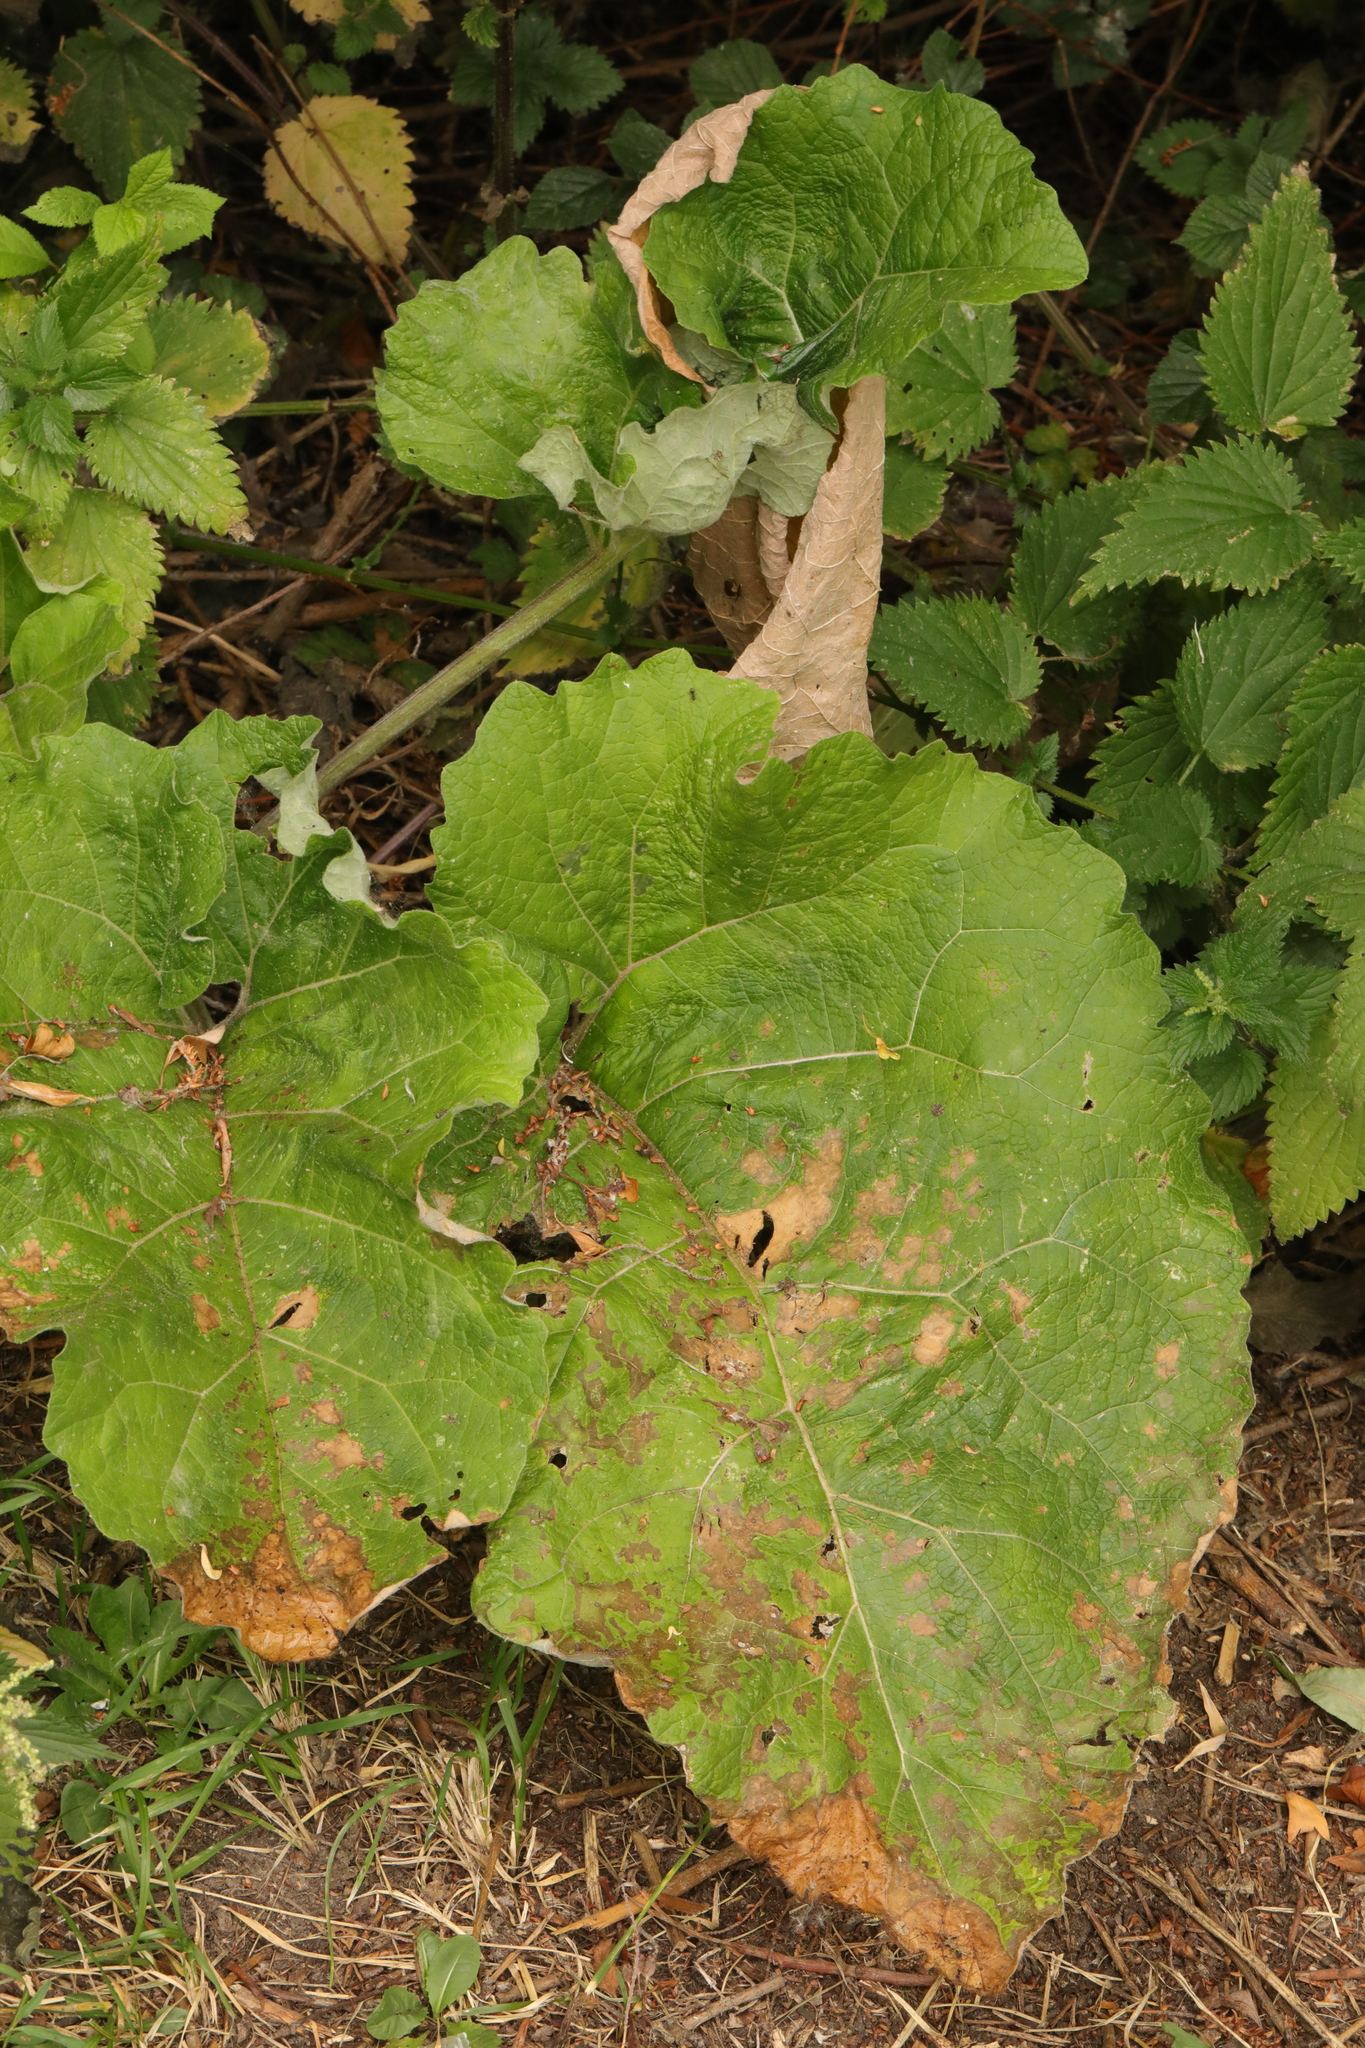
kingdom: Plantae
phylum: Tracheophyta
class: Magnoliopsida
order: Asterales
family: Asteraceae
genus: Arctium
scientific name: Arctium minus
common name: Lesser burdock
